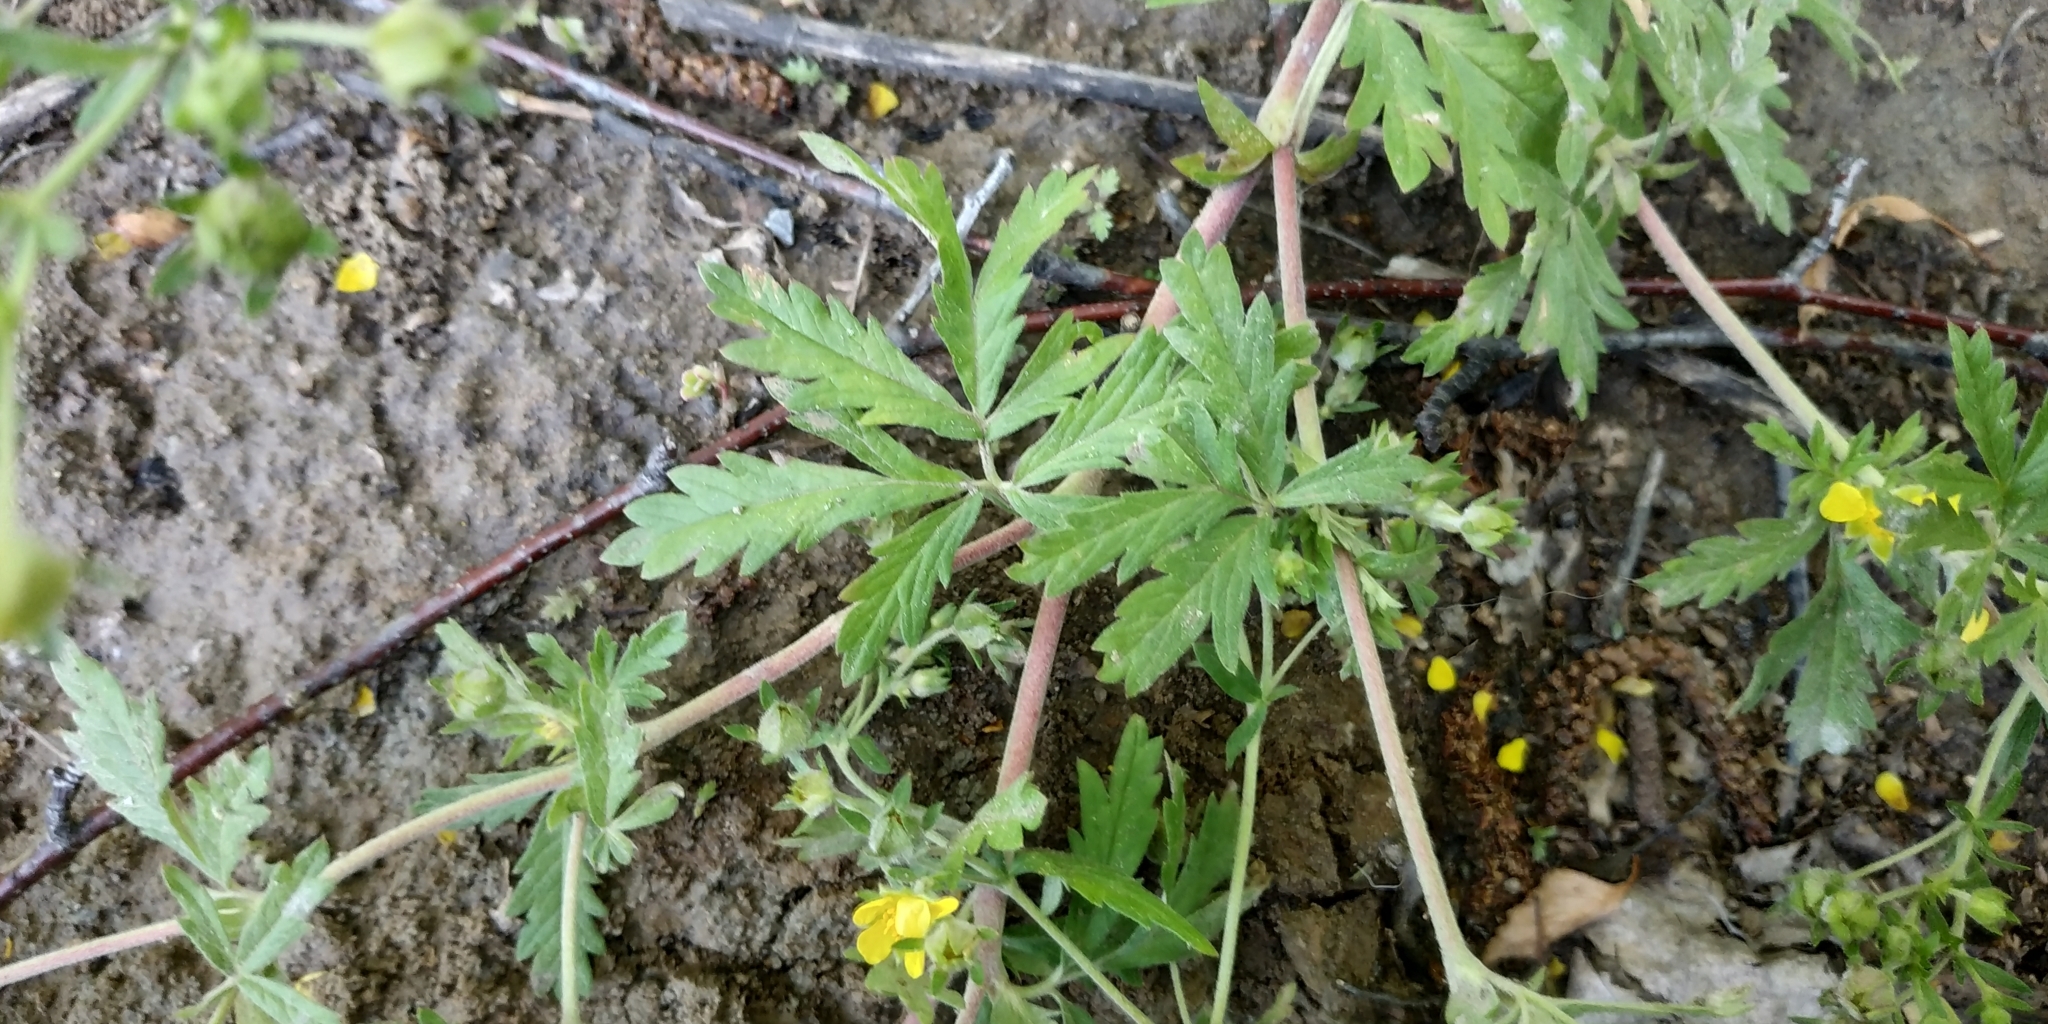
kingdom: Plantae
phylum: Tracheophyta
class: Magnoliopsida
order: Rosales
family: Rosaceae
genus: Potentilla
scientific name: Potentilla tobolensis
